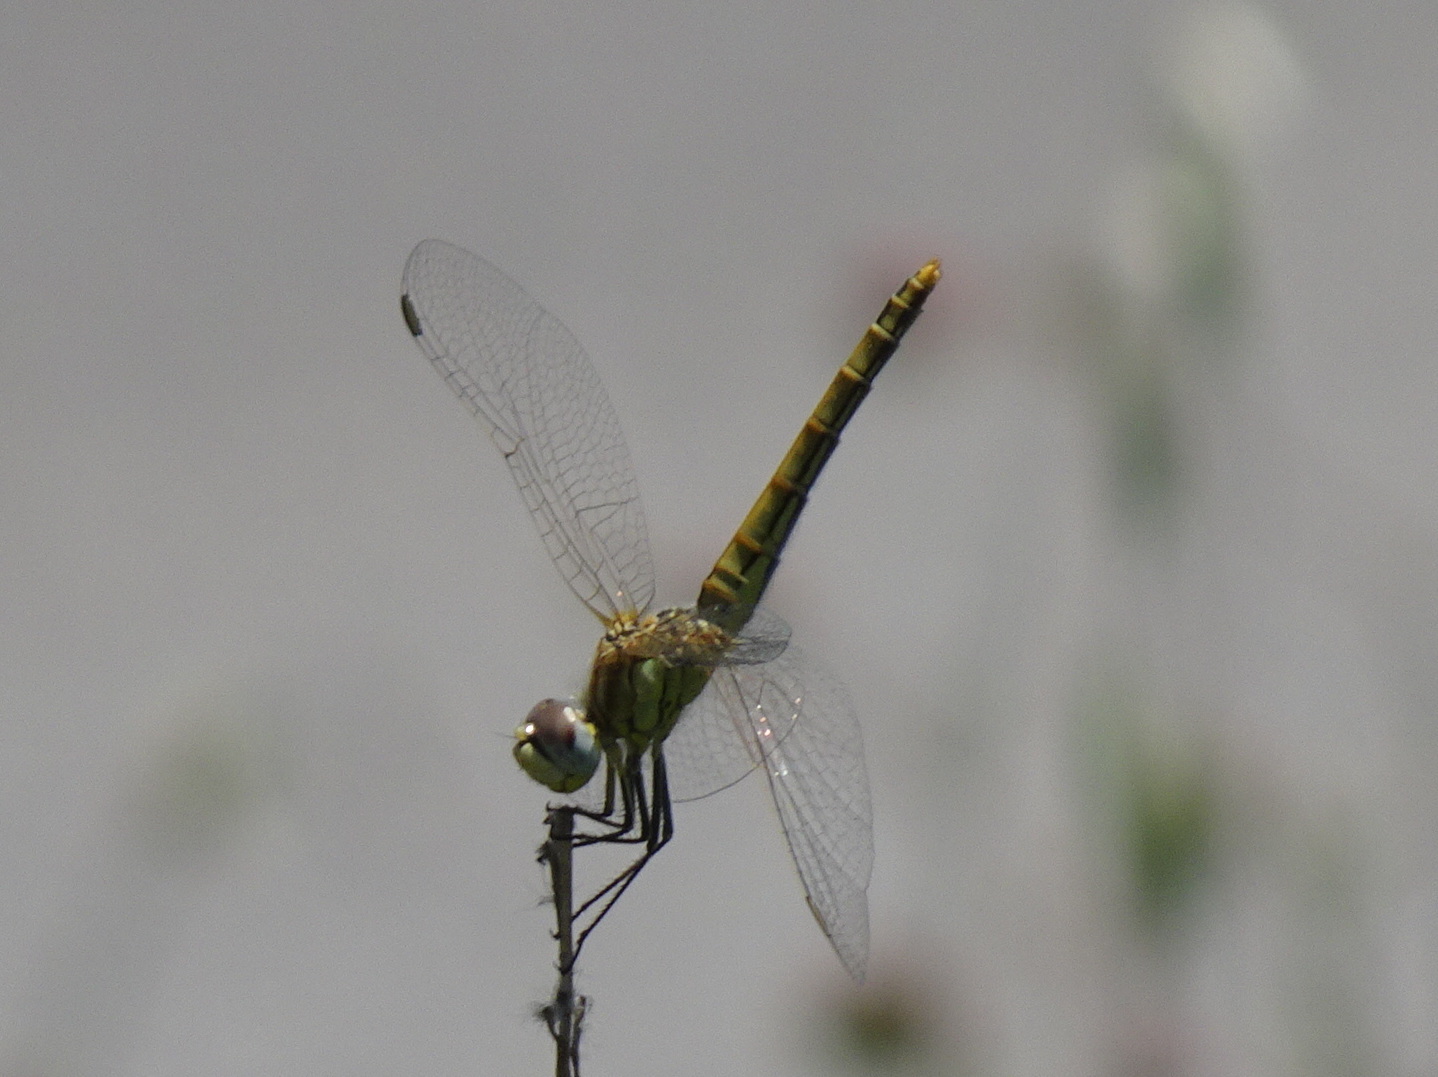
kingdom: Animalia
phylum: Arthropoda
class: Insecta
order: Odonata
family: Libellulidae
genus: Sympetrum
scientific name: Sympetrum fonscolombii
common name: Red-veined darter
